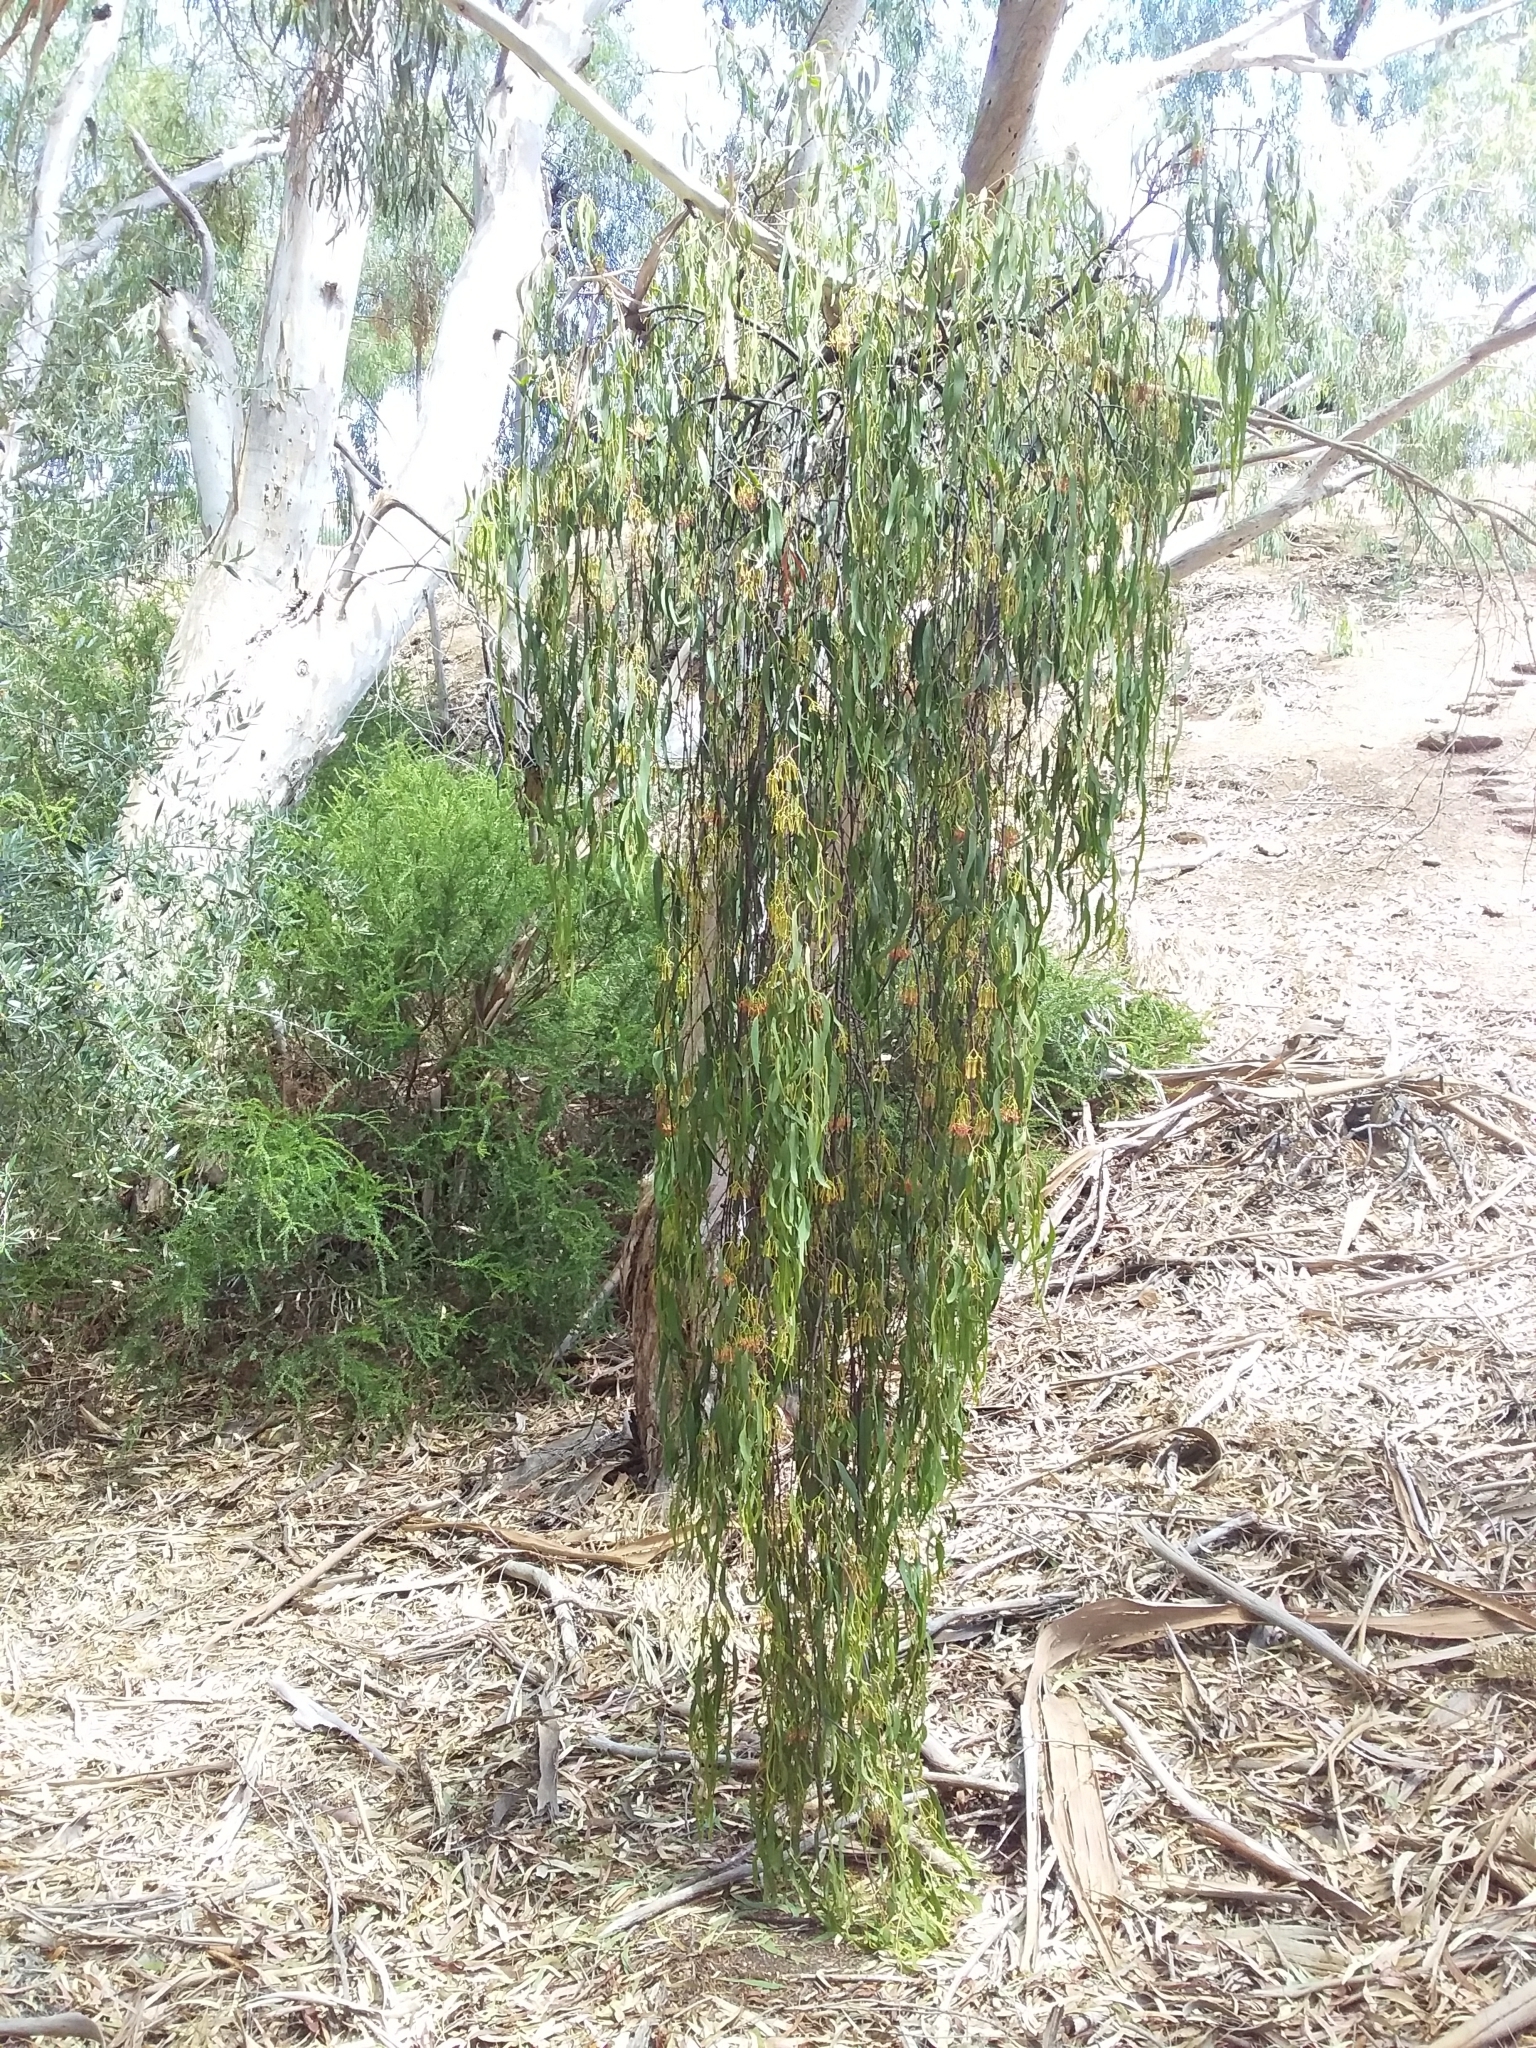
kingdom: Plantae
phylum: Tracheophyta
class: Magnoliopsida
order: Santalales
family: Loranthaceae
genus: Amyema
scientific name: Amyema miquelii
